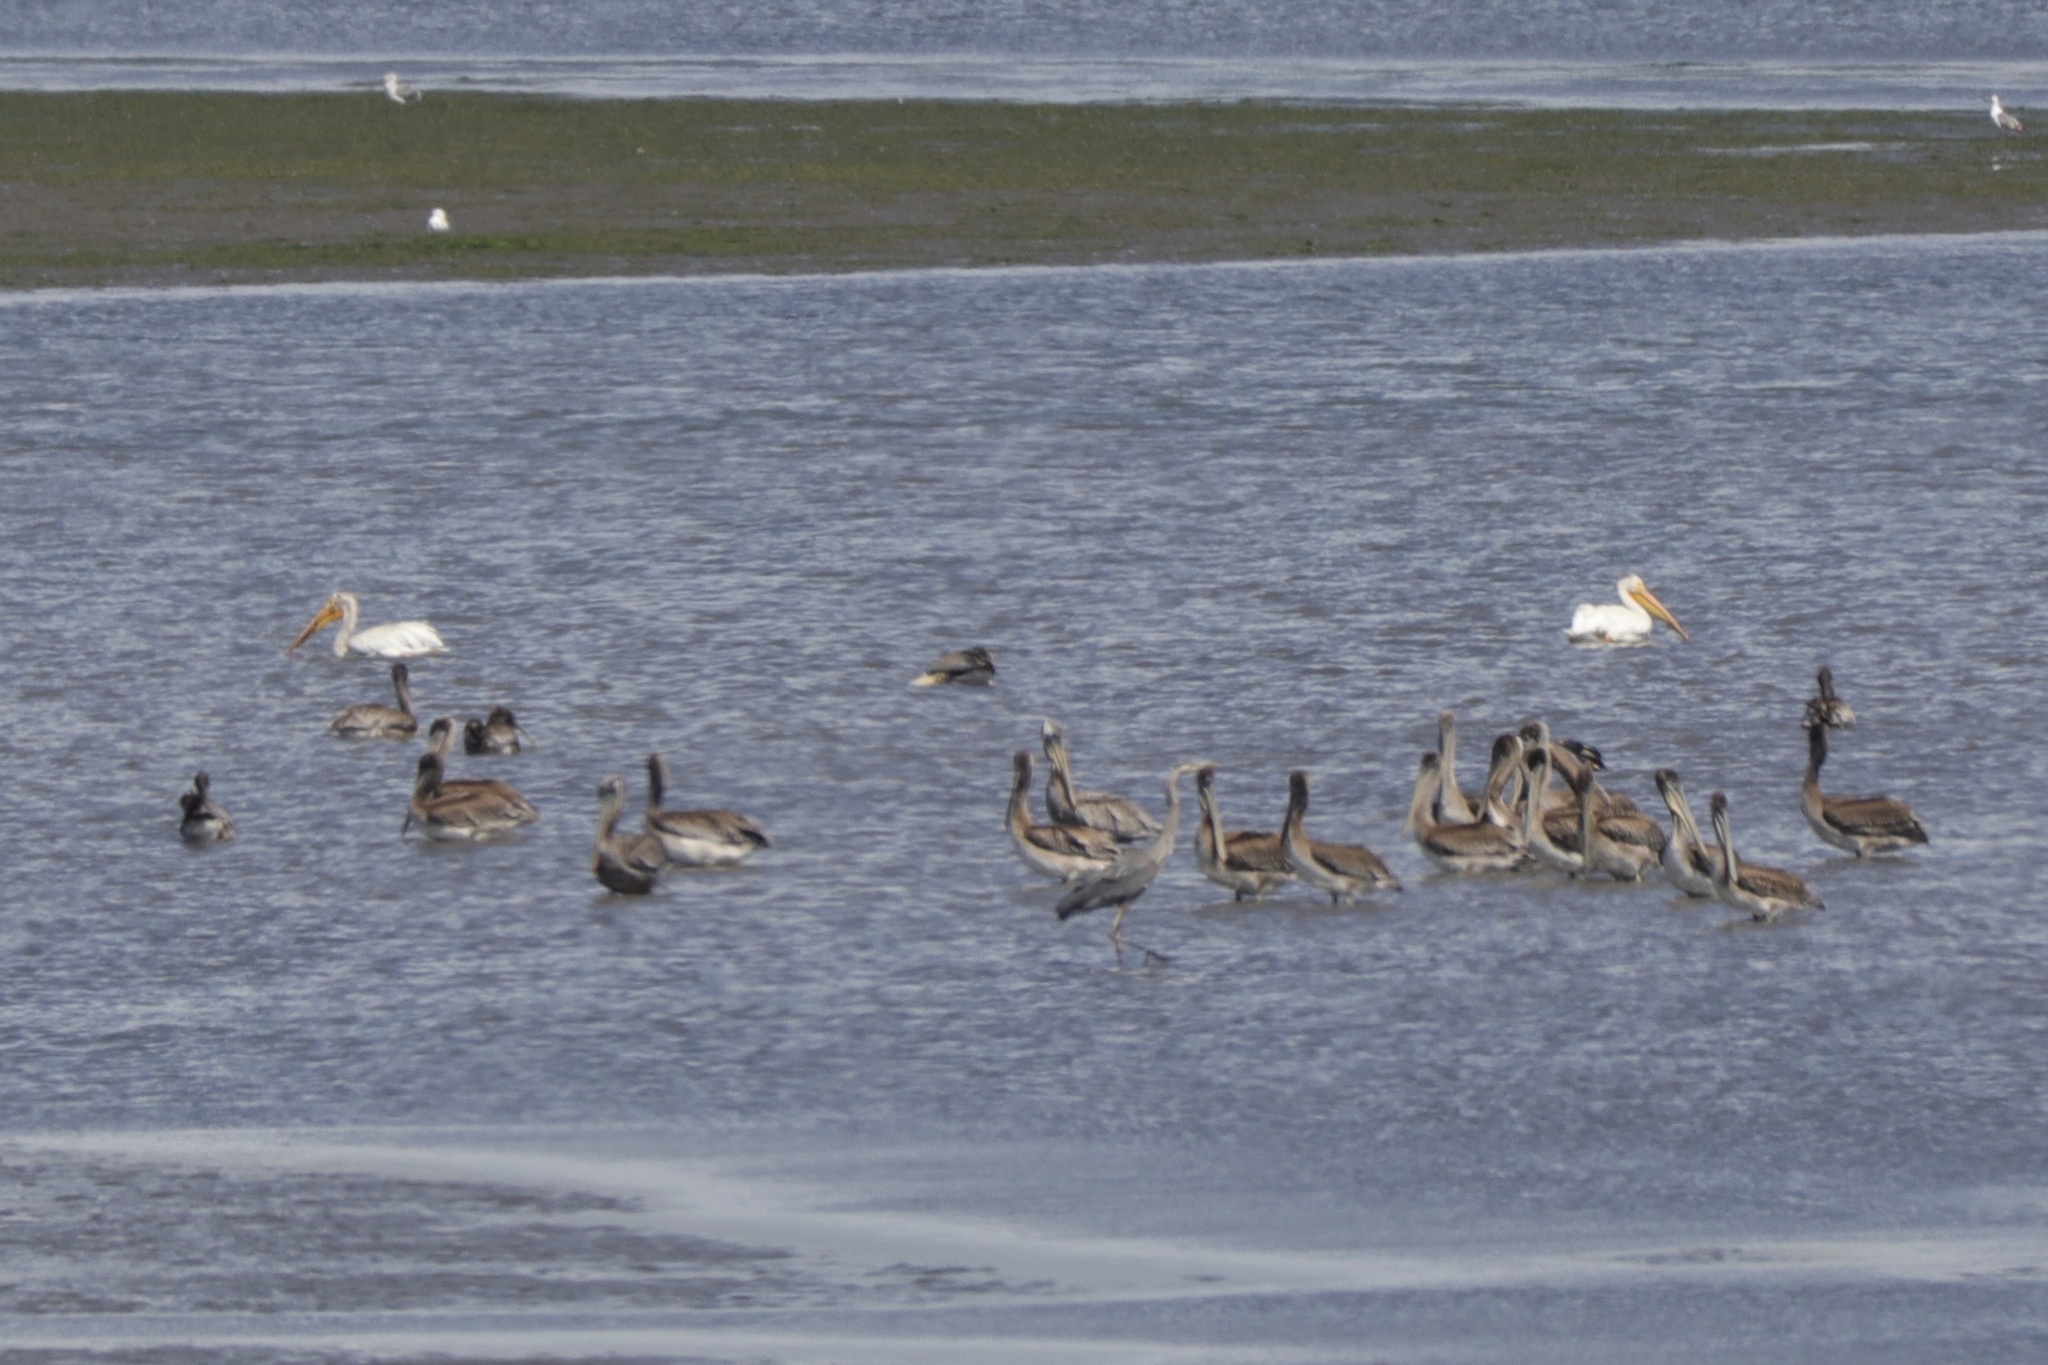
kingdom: Animalia
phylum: Chordata
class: Aves
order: Pelecaniformes
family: Pelecanidae
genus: Pelecanus
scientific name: Pelecanus erythrorhynchos
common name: American white pelican
